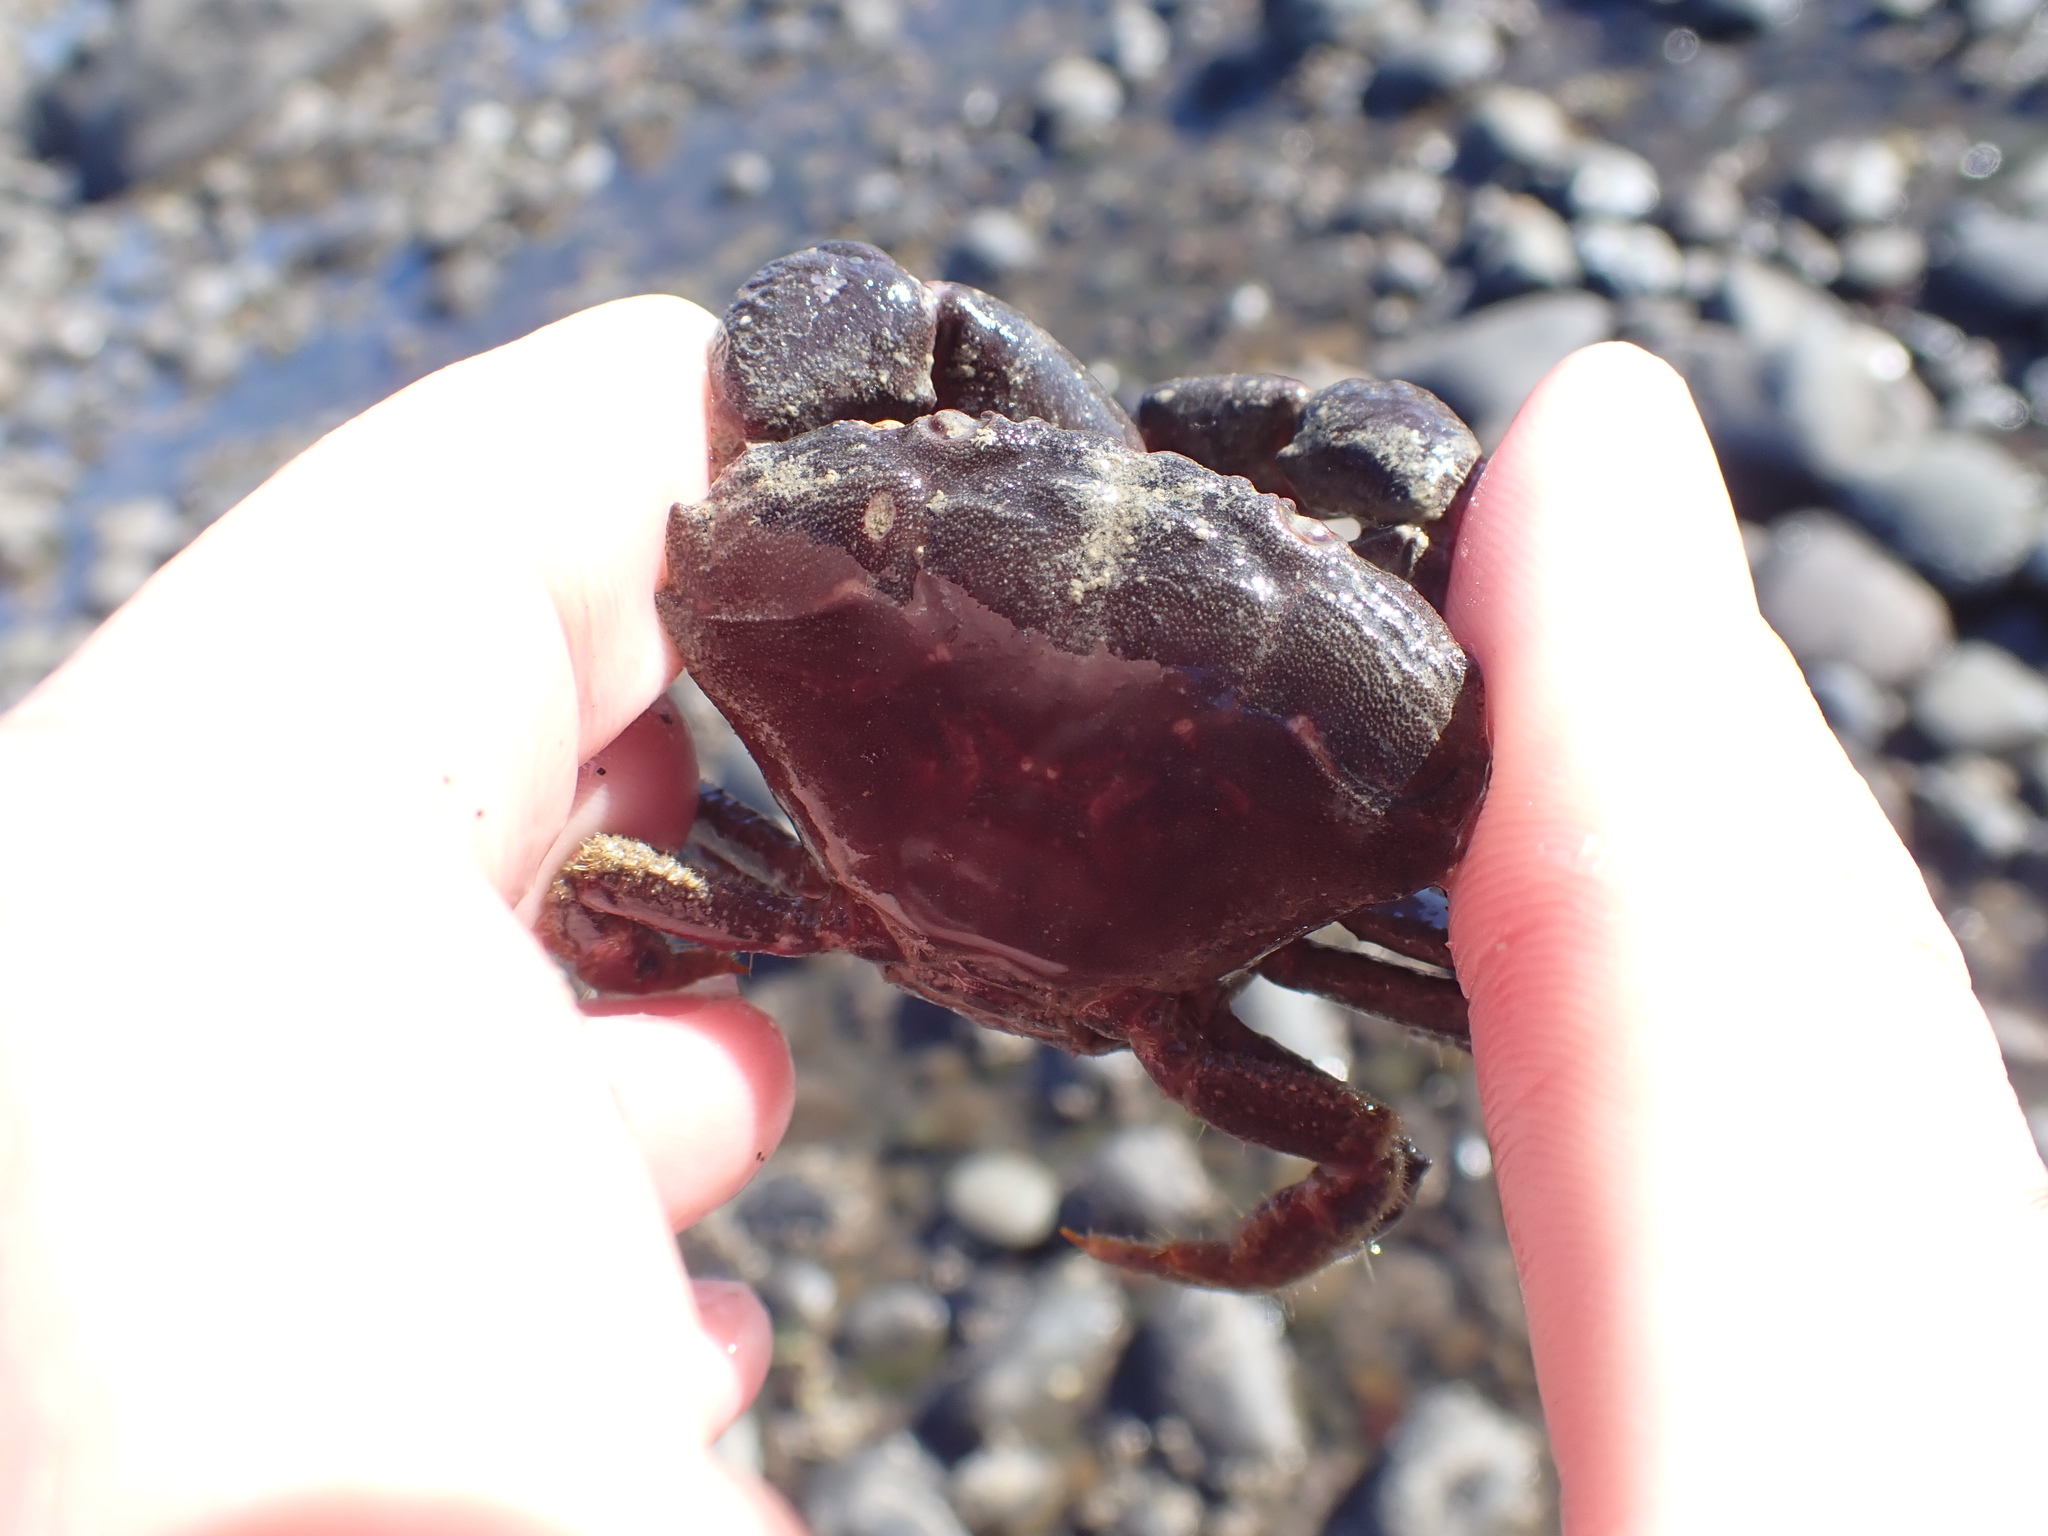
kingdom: Animalia
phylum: Arthropoda
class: Malacostraca
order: Decapoda
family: Oziidae
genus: Ozius
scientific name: Ozius deplanatus
